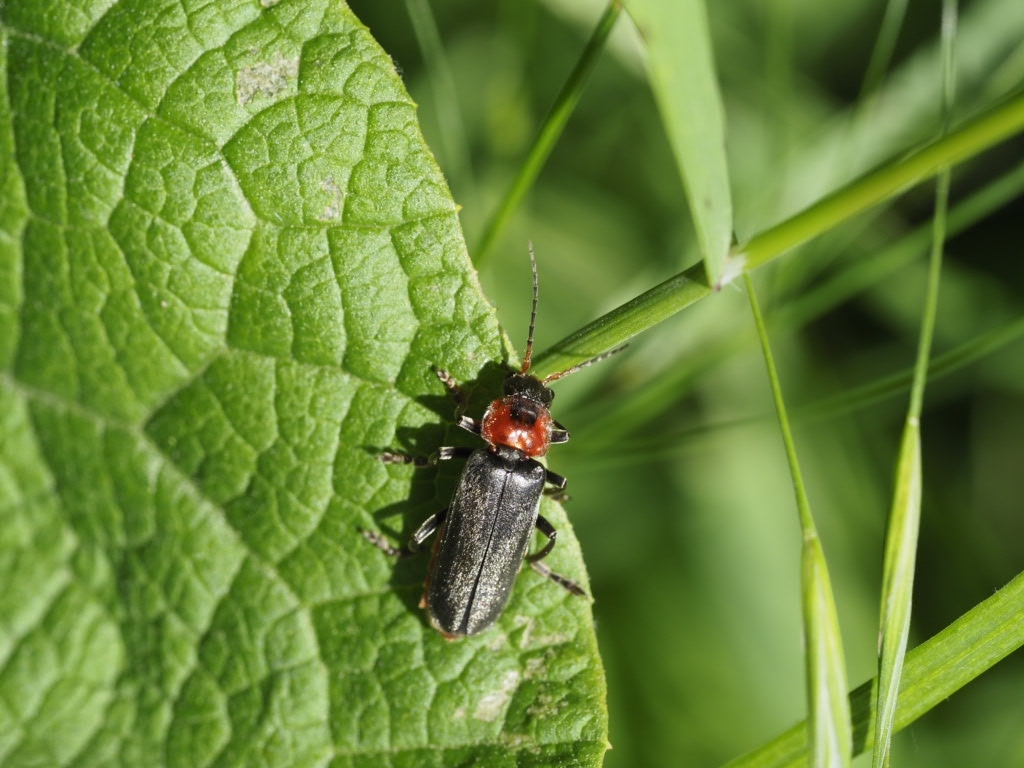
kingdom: Animalia
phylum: Arthropoda
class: Insecta
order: Coleoptera
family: Cantharidae
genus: Cantharis
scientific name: Cantharis fusca
